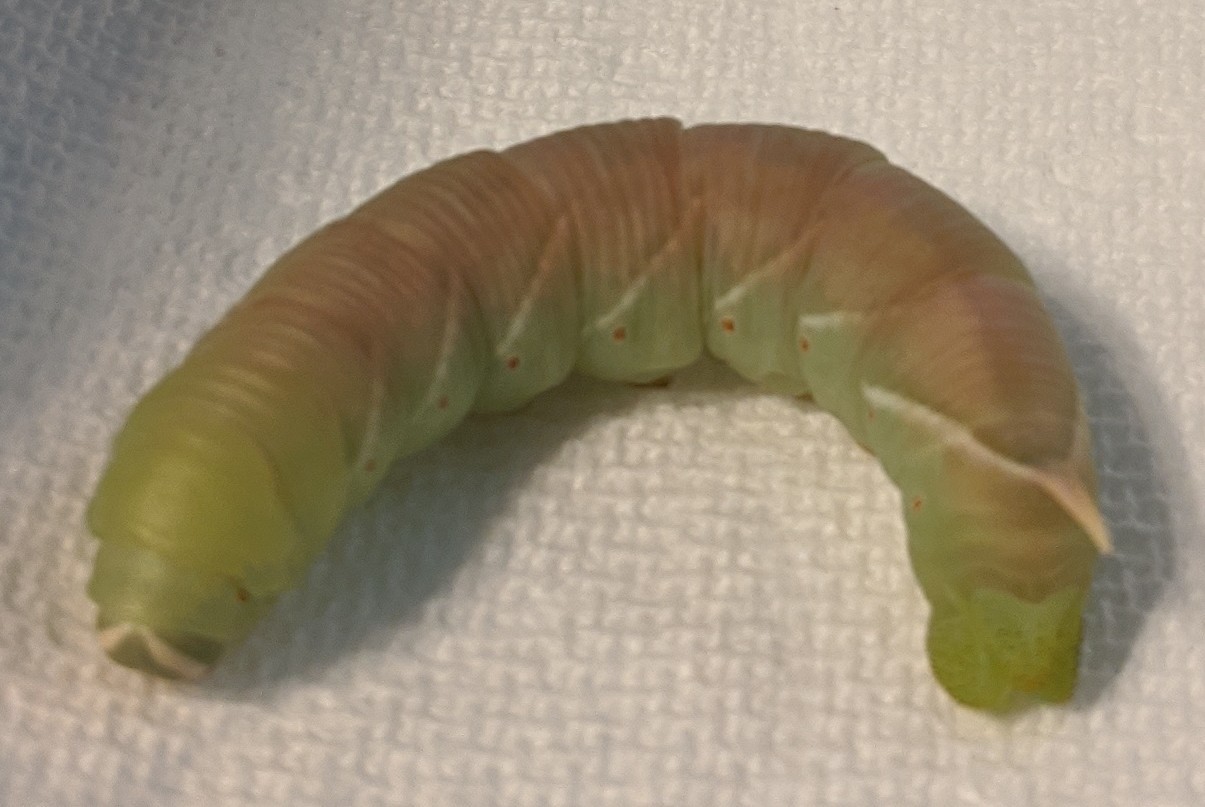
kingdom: Animalia
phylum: Arthropoda
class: Insecta
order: Lepidoptera
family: Sphingidae
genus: Ceratomia
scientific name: Ceratomia undulosa
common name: Waved sphinx
